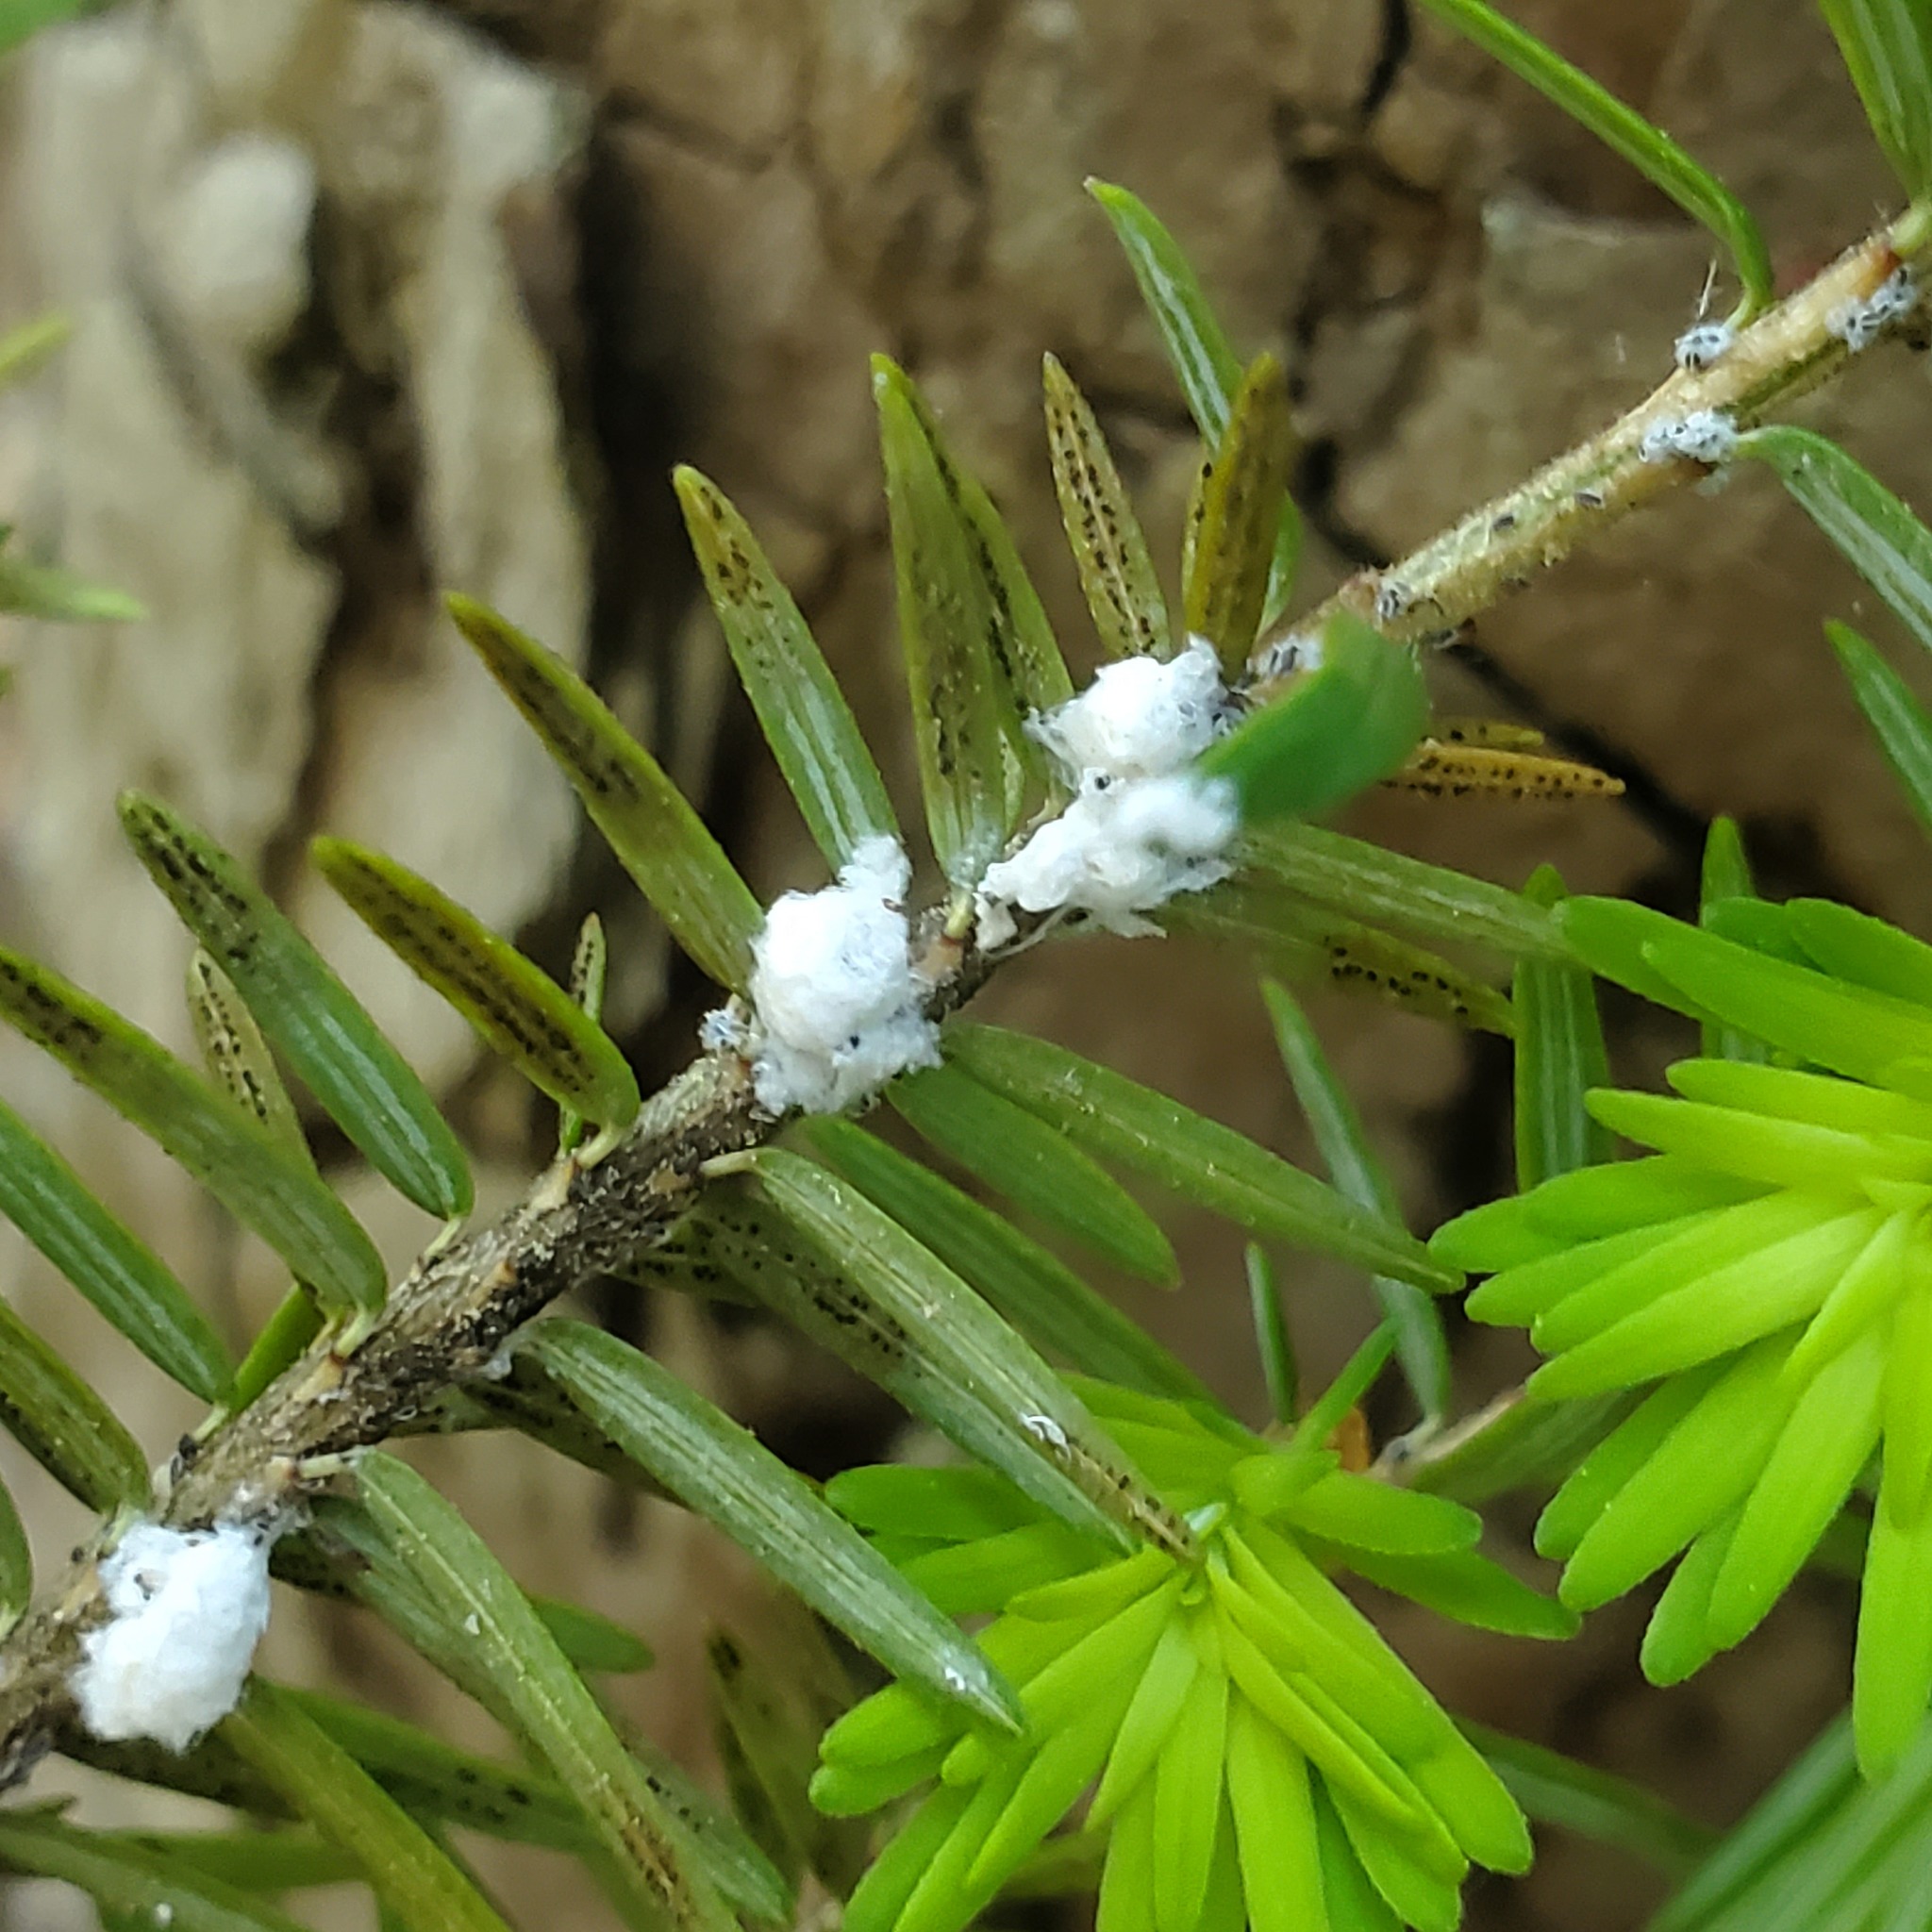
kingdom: Animalia
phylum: Arthropoda
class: Insecta
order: Hemiptera
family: Adelgidae
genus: Adelges
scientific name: Adelges tsugae
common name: Hemlock woolly adelgid
